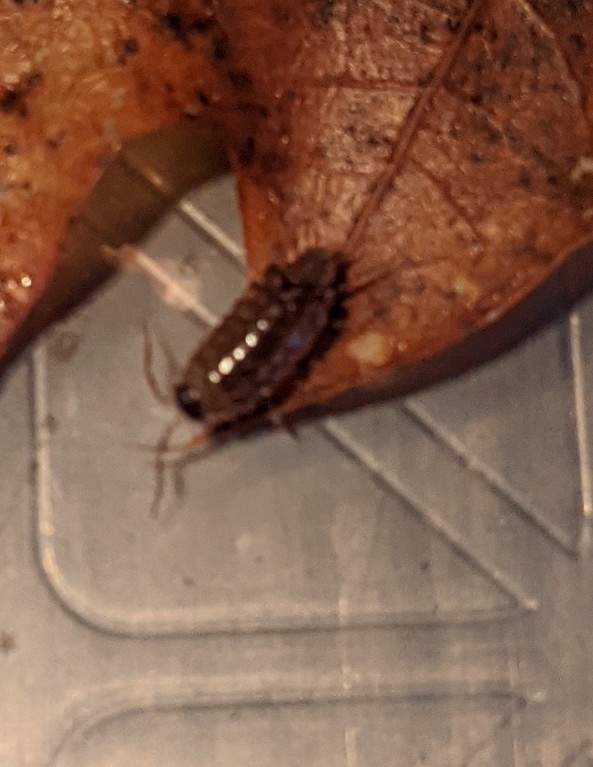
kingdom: Animalia
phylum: Arthropoda
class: Malacostraca
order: Isopoda
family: Philosciidae
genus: Philoscia
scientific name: Philoscia muscorum
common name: Common striped woodlouse
